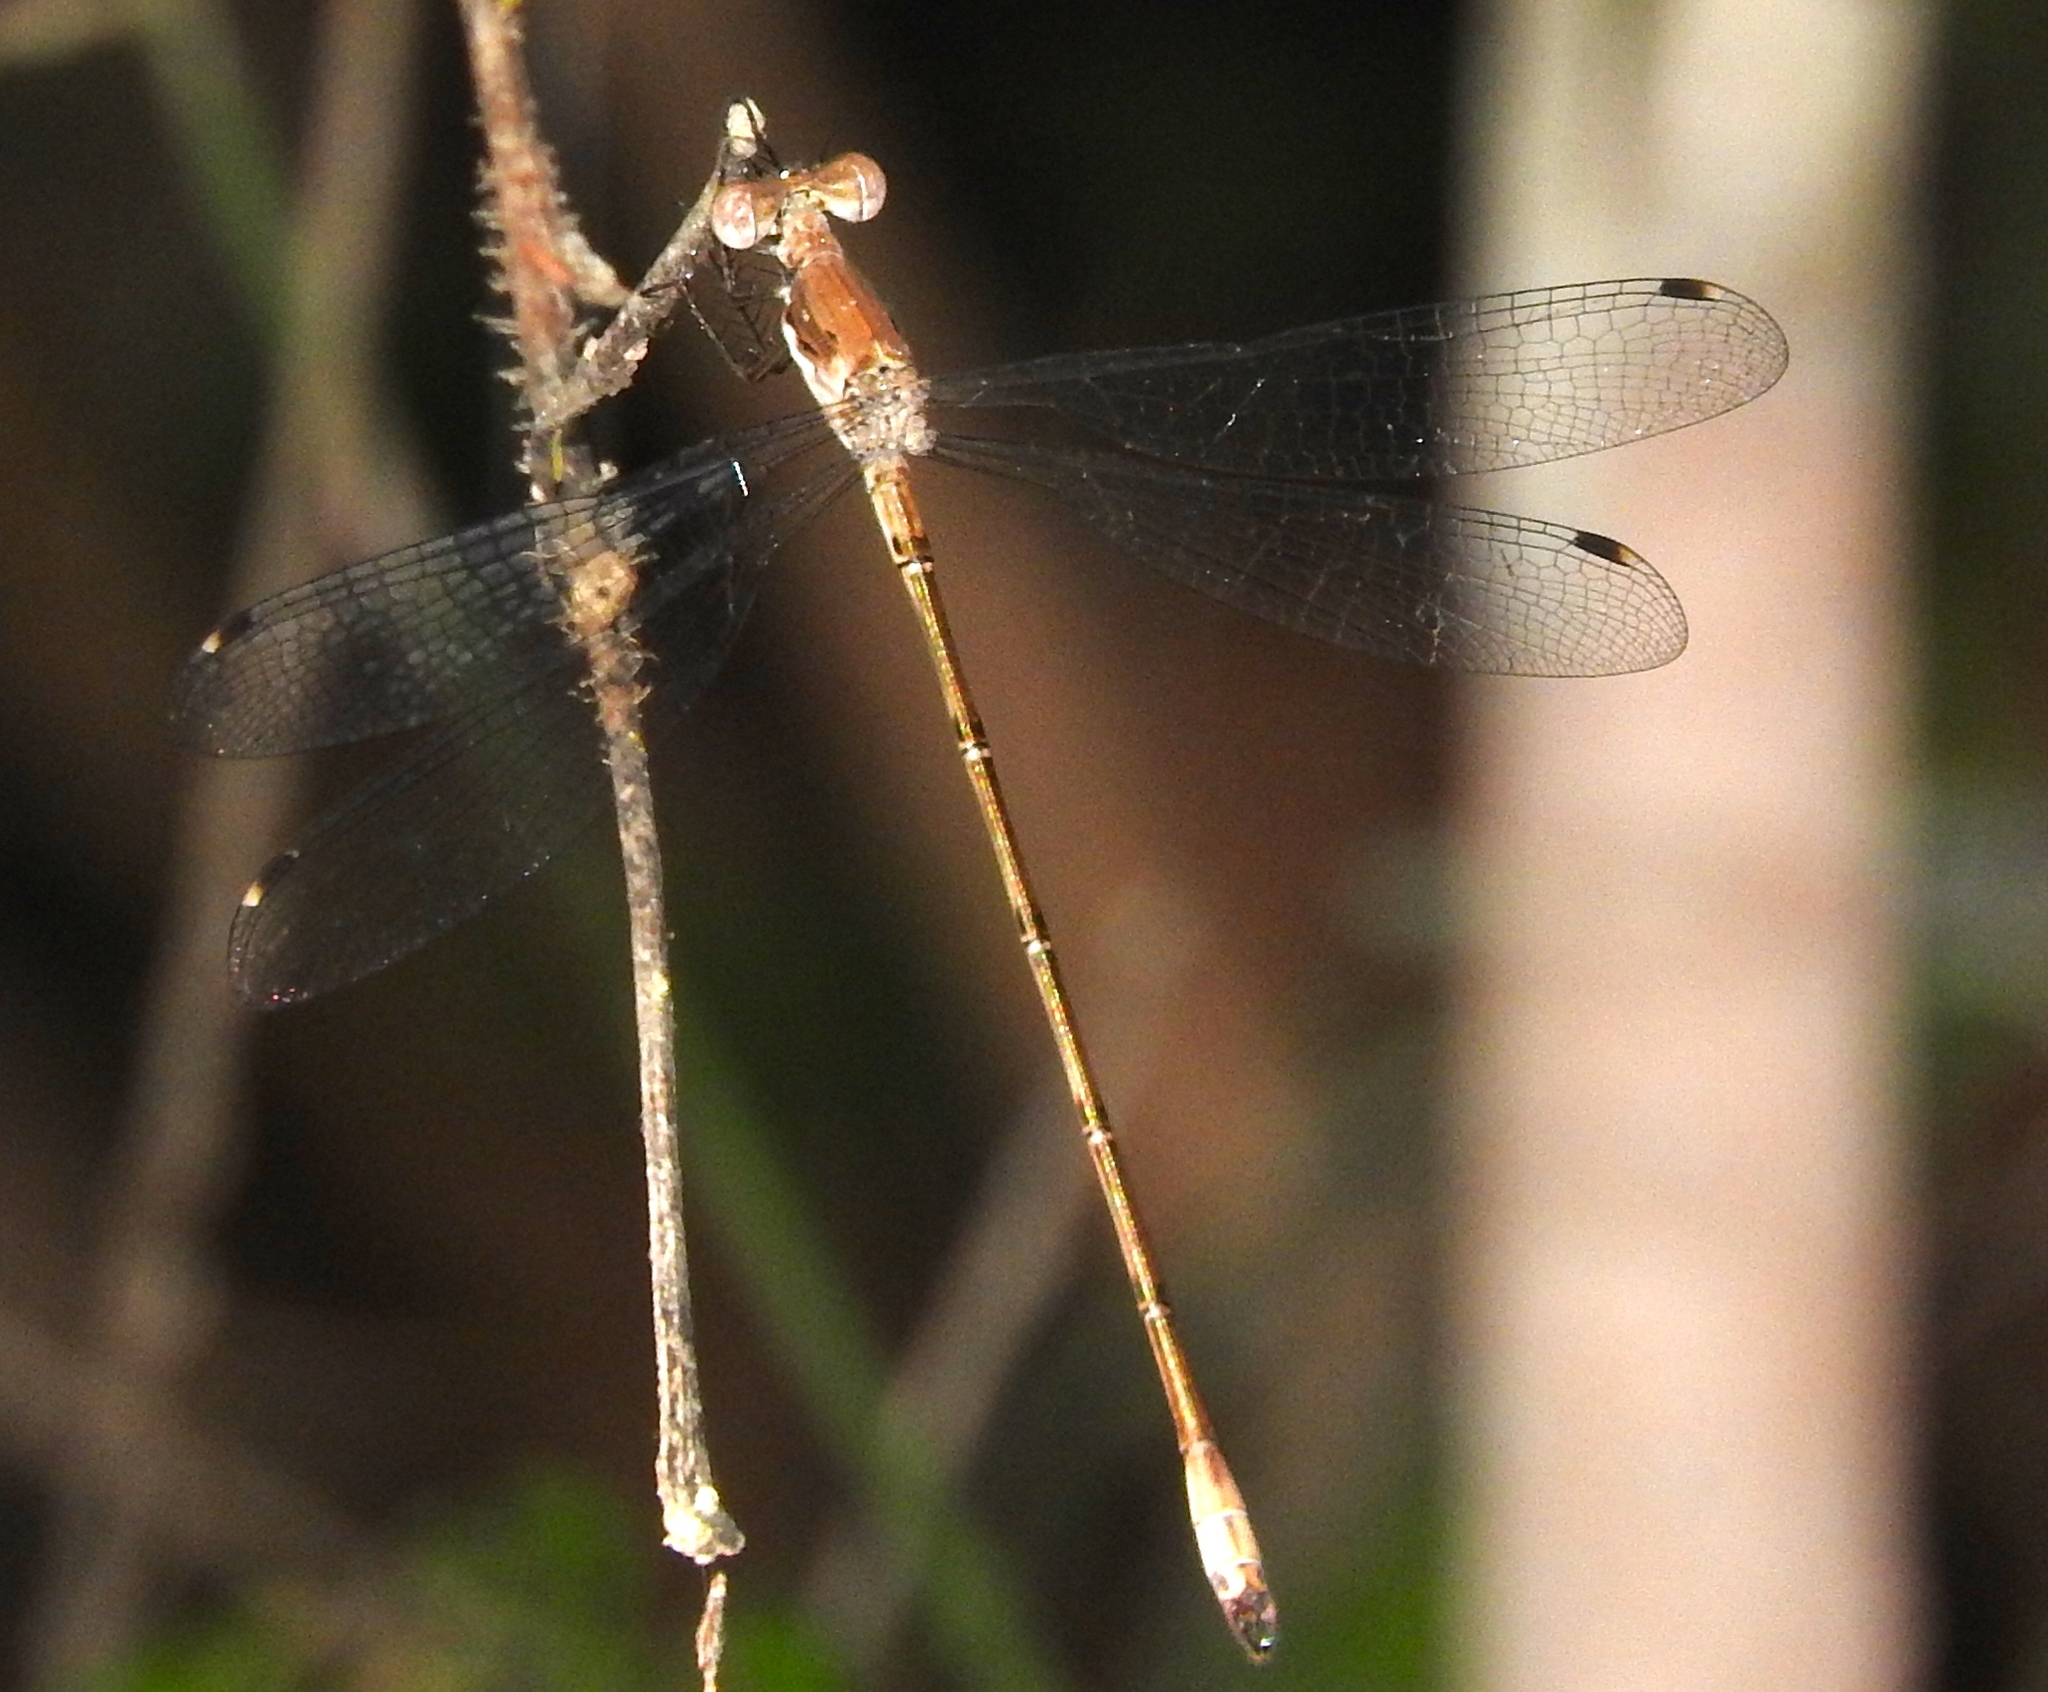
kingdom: Animalia
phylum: Arthropoda
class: Insecta
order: Odonata
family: Lestidae
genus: Lestes
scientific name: Lestes sigma
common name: Chalky spreadwing
